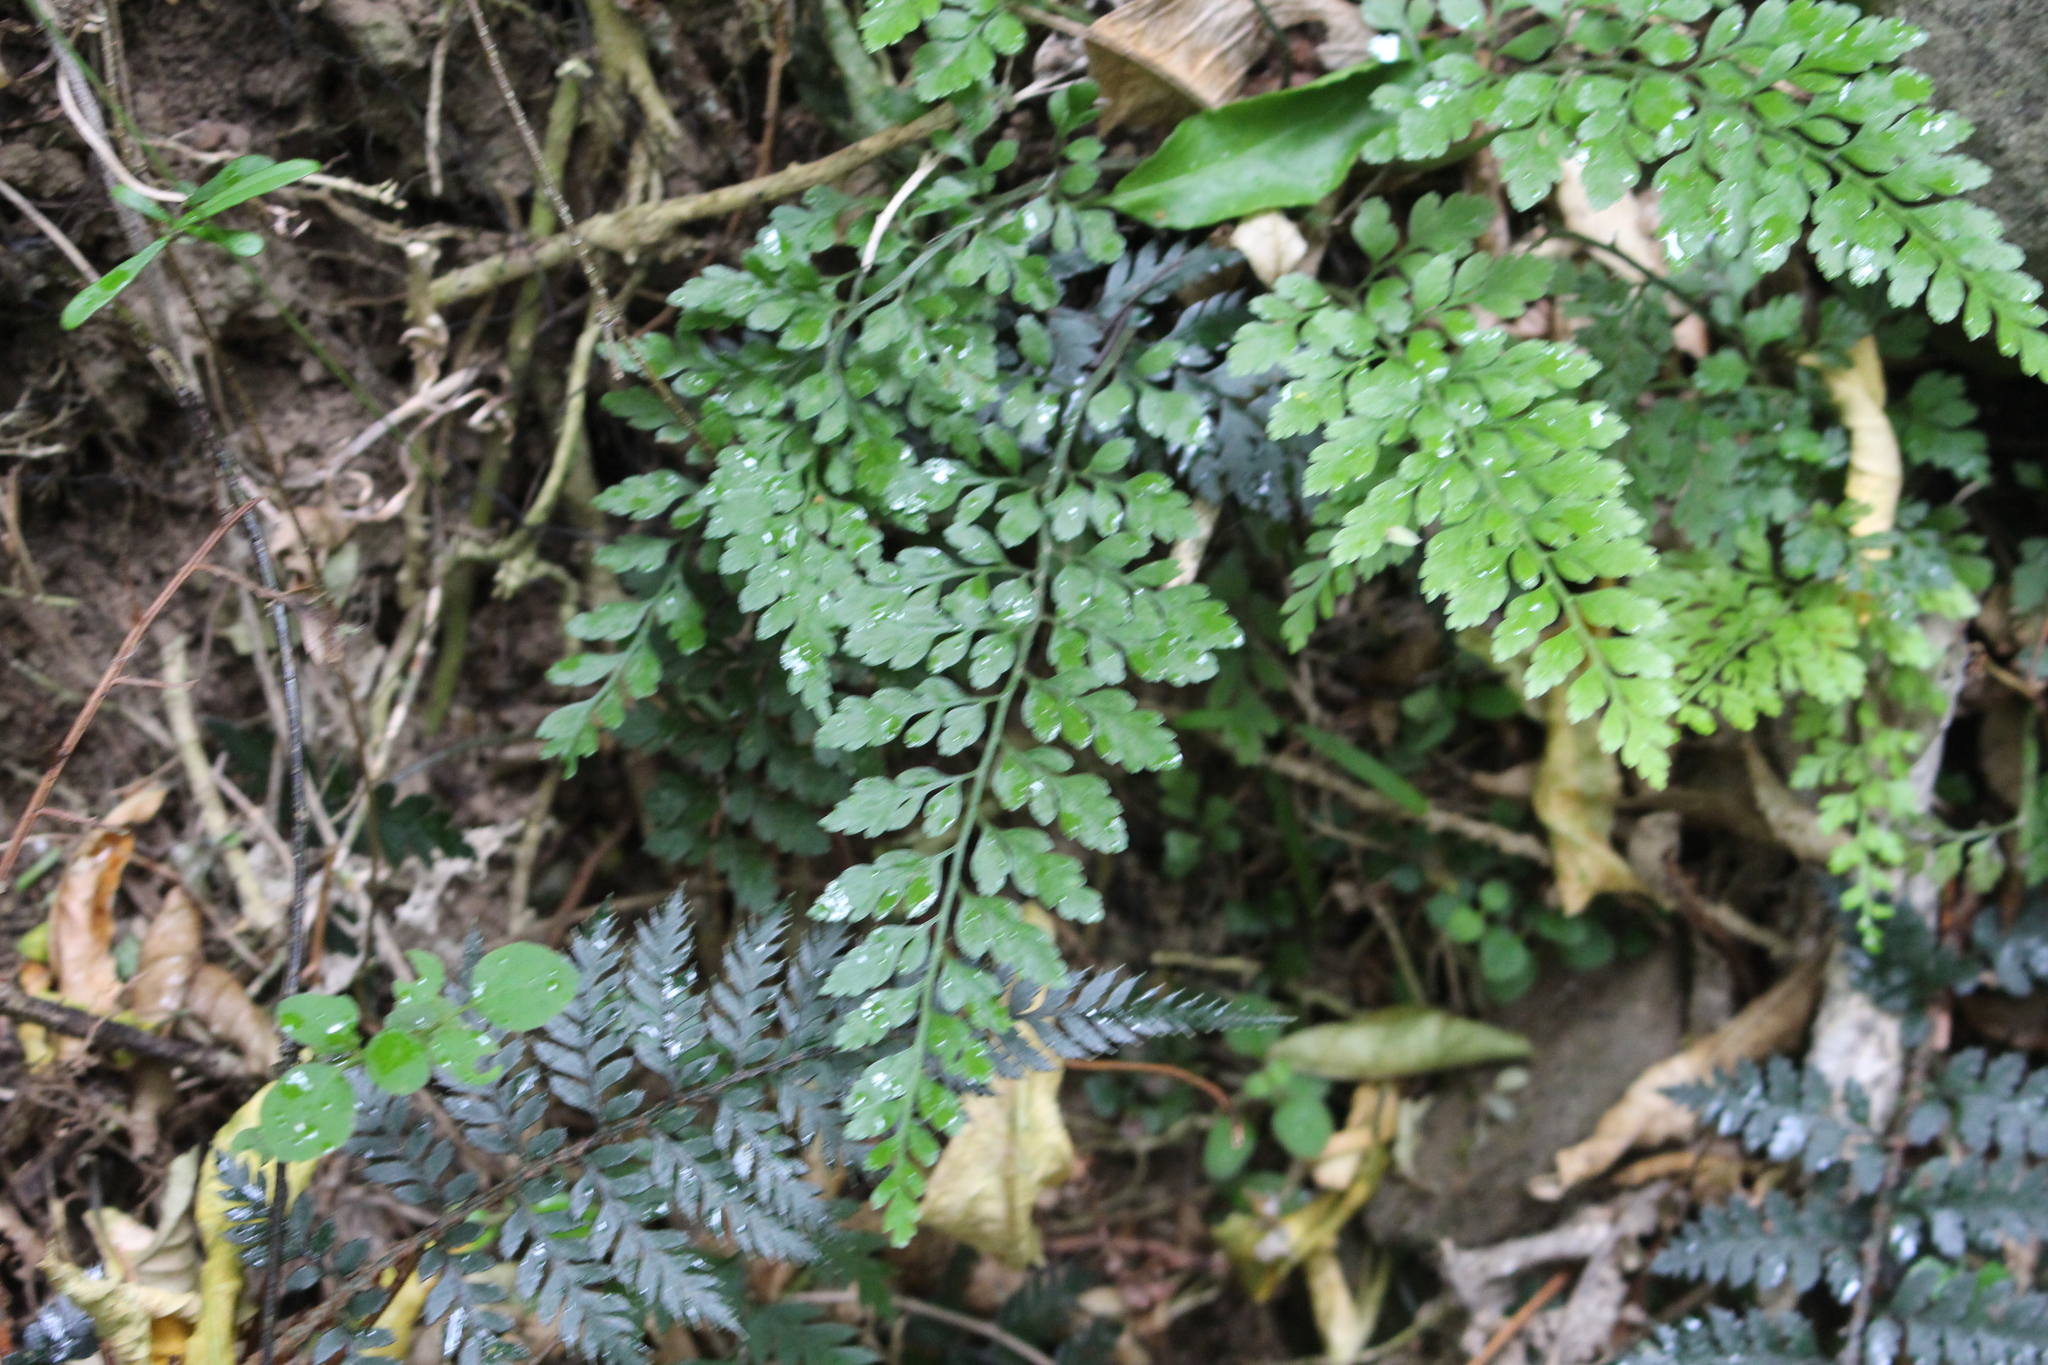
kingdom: Plantae
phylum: Tracheophyta
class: Polypodiopsida
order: Polypodiales
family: Aspleniaceae
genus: Asplenium
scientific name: Asplenium
